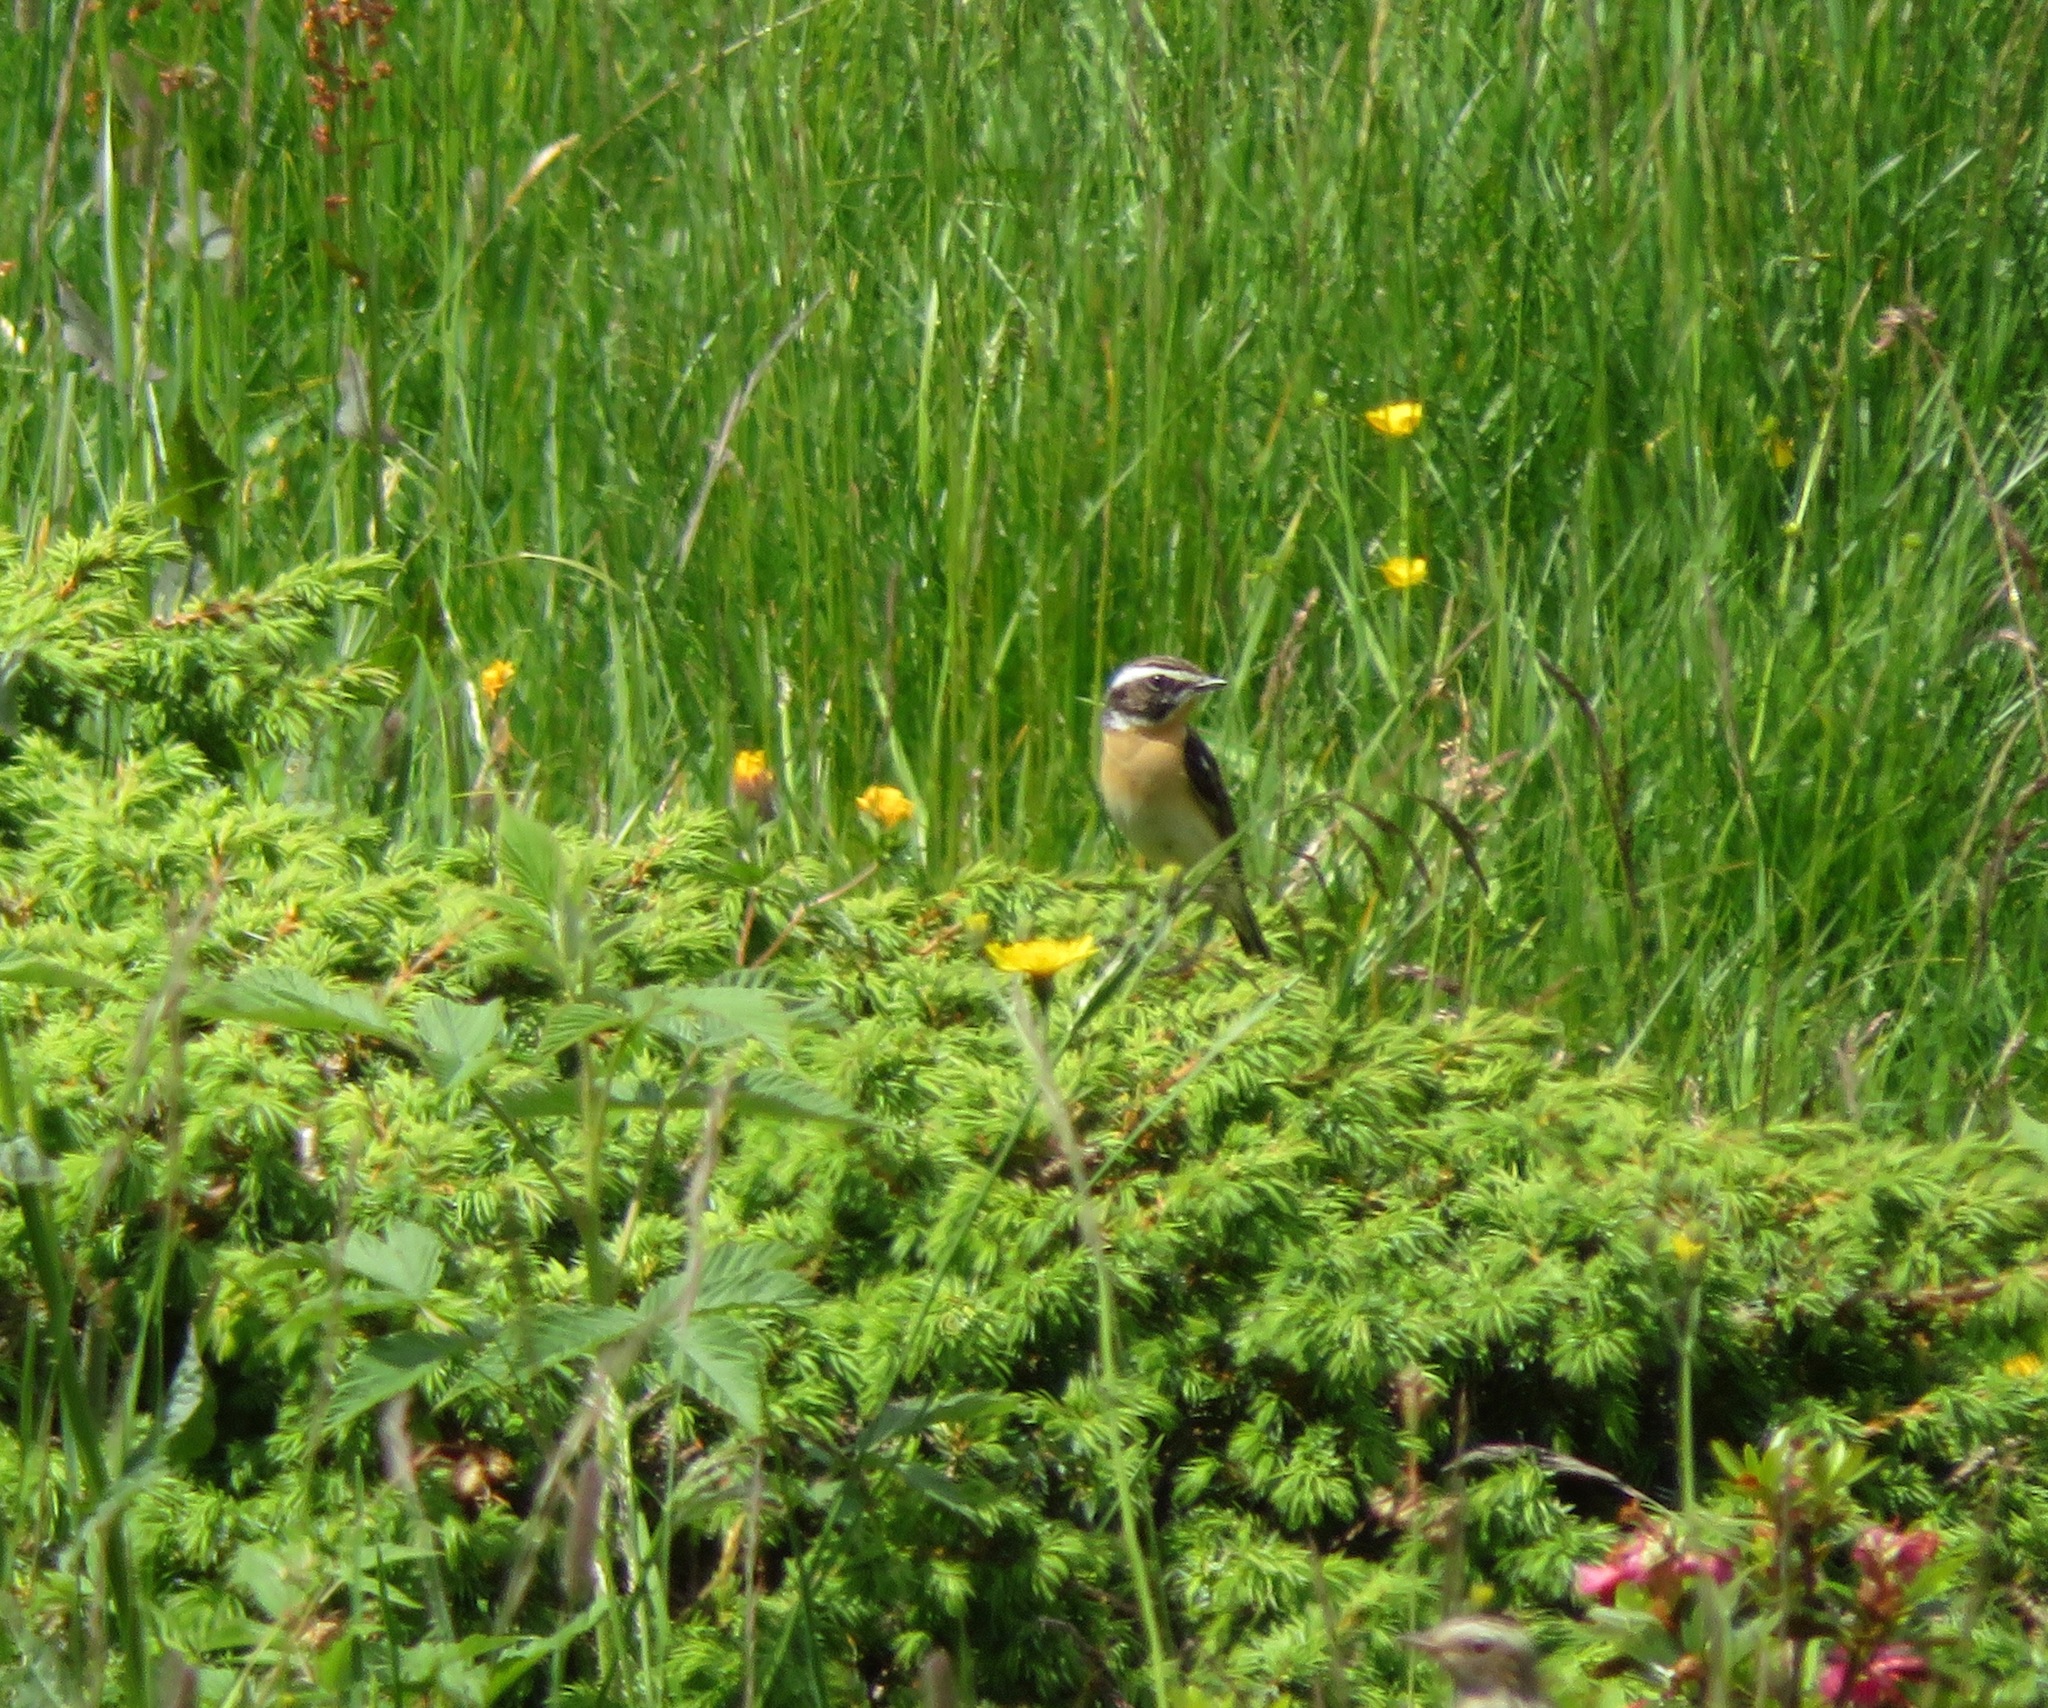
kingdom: Animalia
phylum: Chordata
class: Aves
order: Passeriformes
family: Muscicapidae
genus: Saxicola
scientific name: Saxicola rubetra
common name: Whinchat
